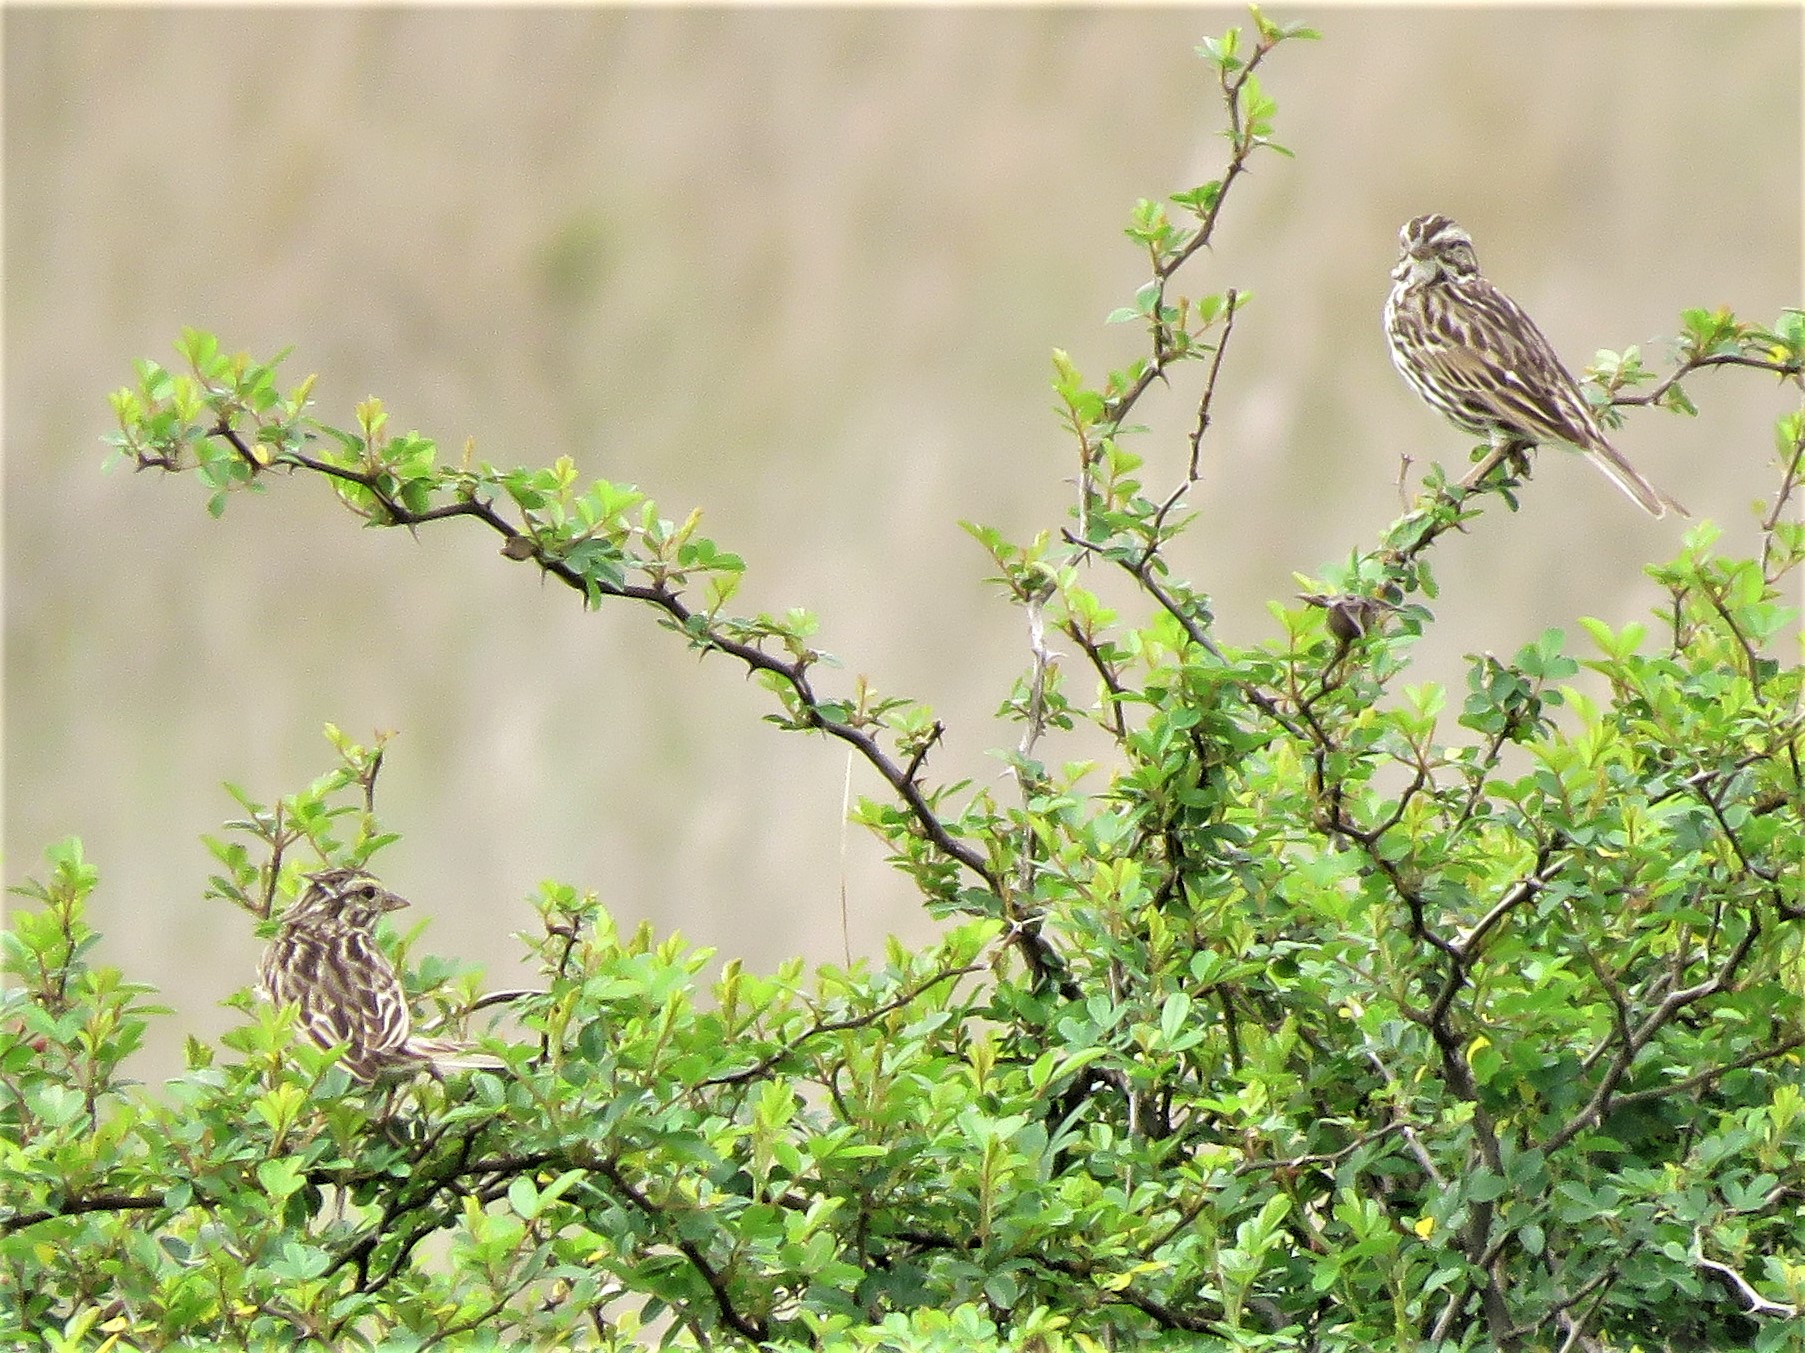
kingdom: Plantae
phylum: Tracheophyta
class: Magnoliopsida
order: Rosales
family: Rosaceae
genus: Rosa
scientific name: Rosa bracteata
